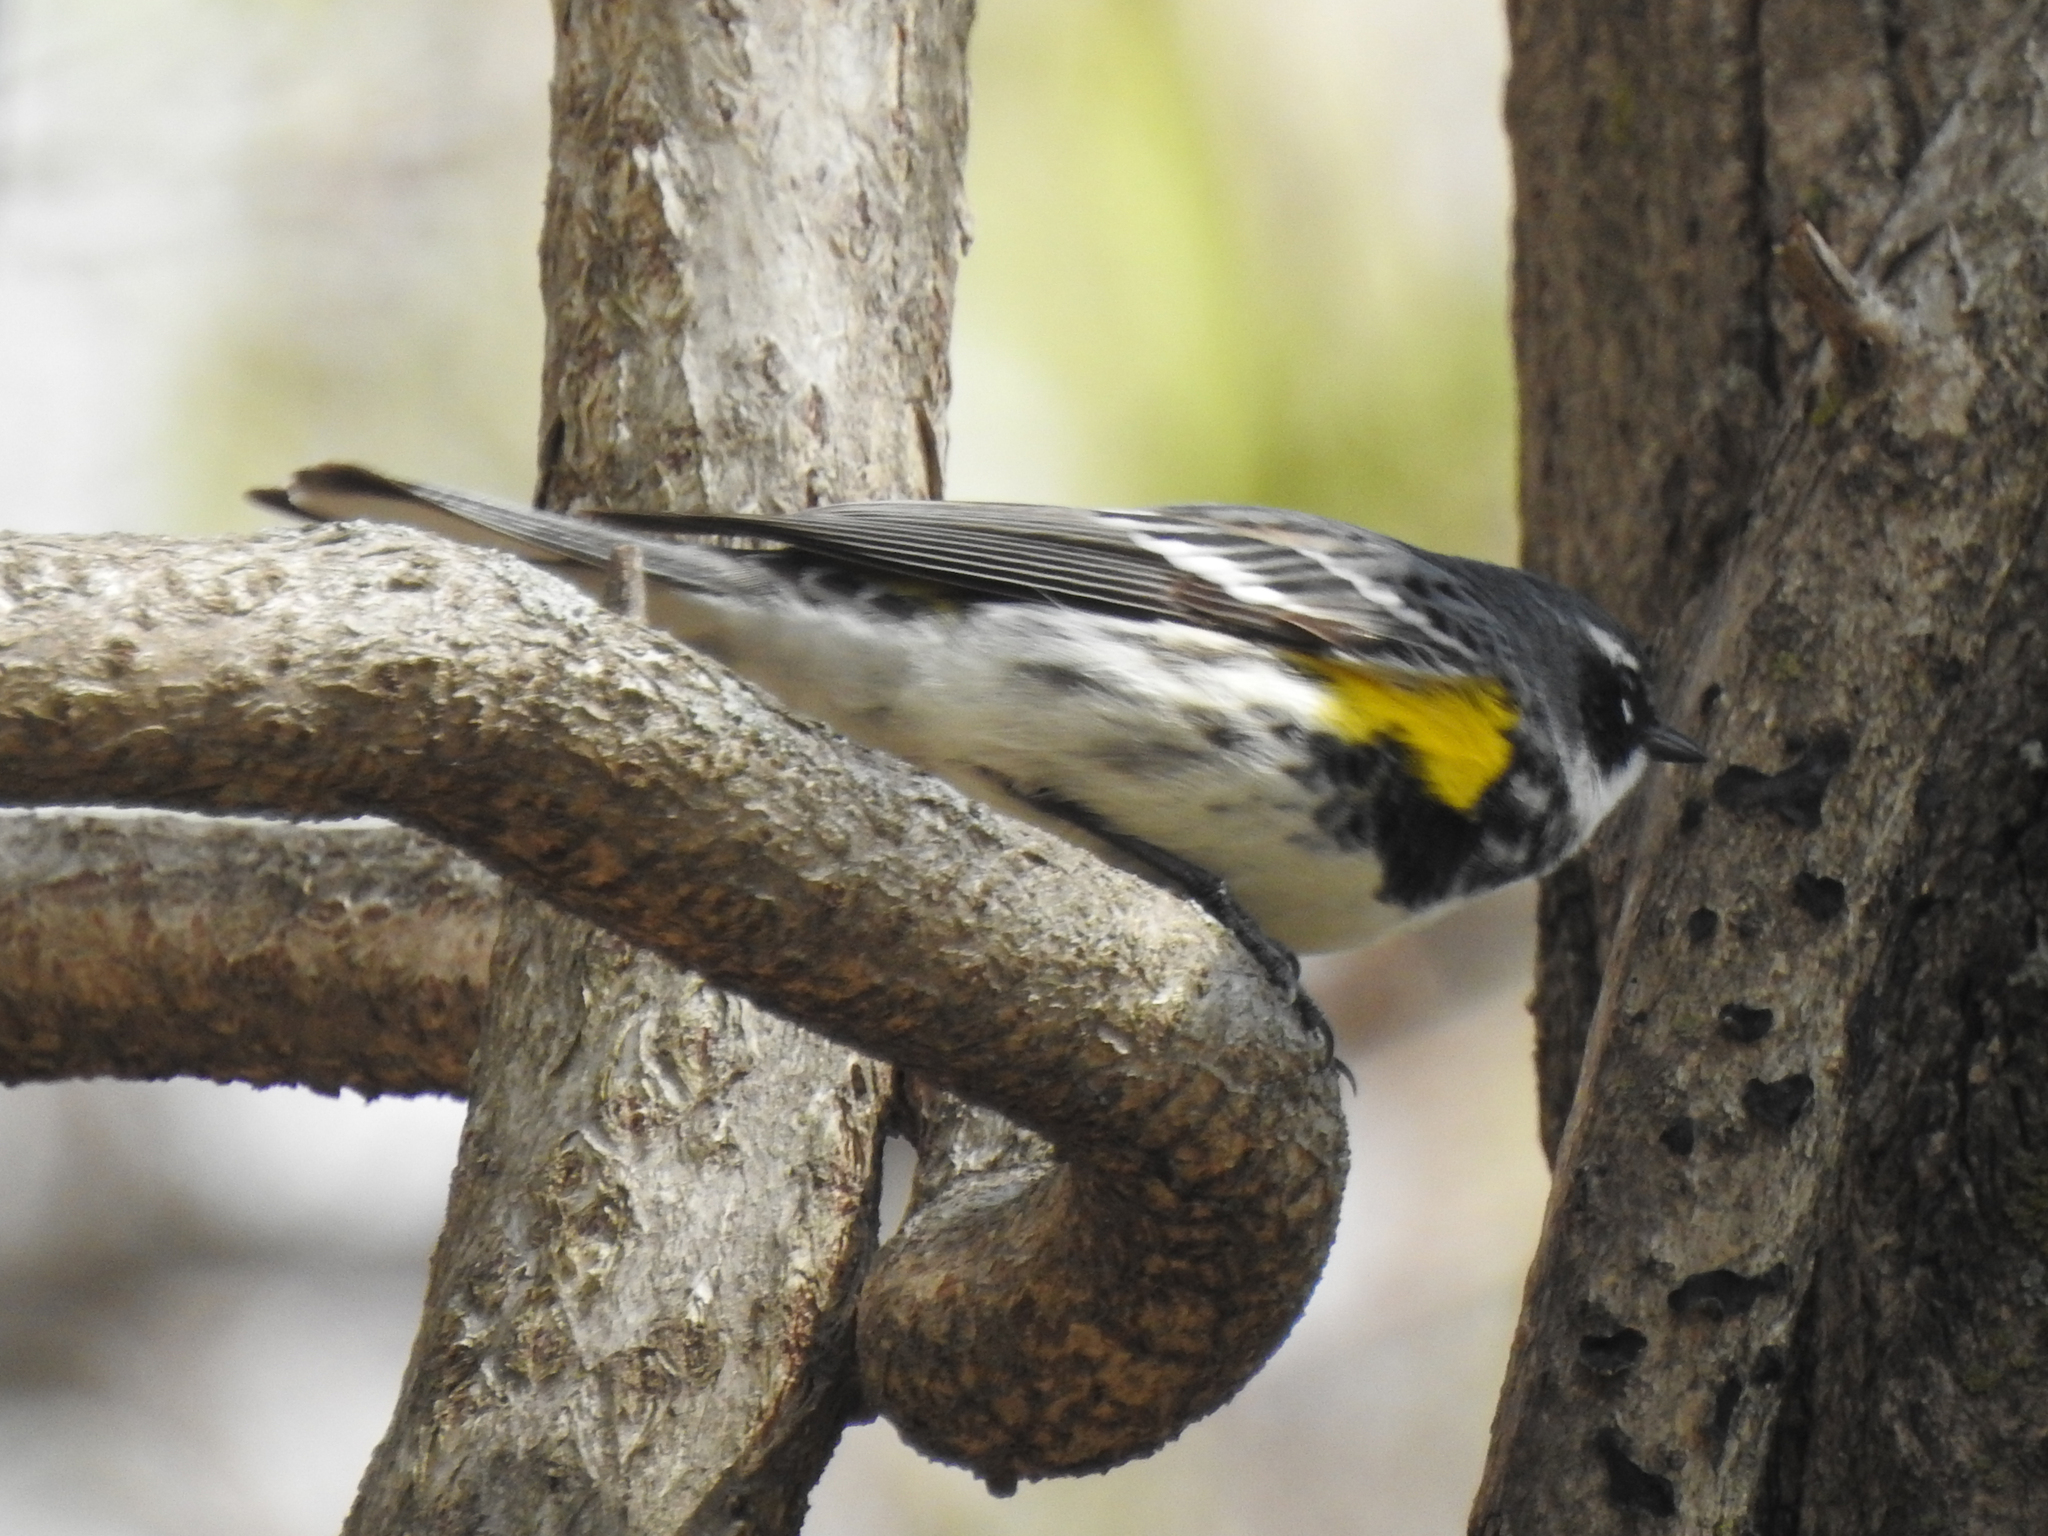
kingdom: Animalia
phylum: Chordata
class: Aves
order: Passeriformes
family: Parulidae
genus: Setophaga
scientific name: Setophaga coronata
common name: Myrtle warbler
